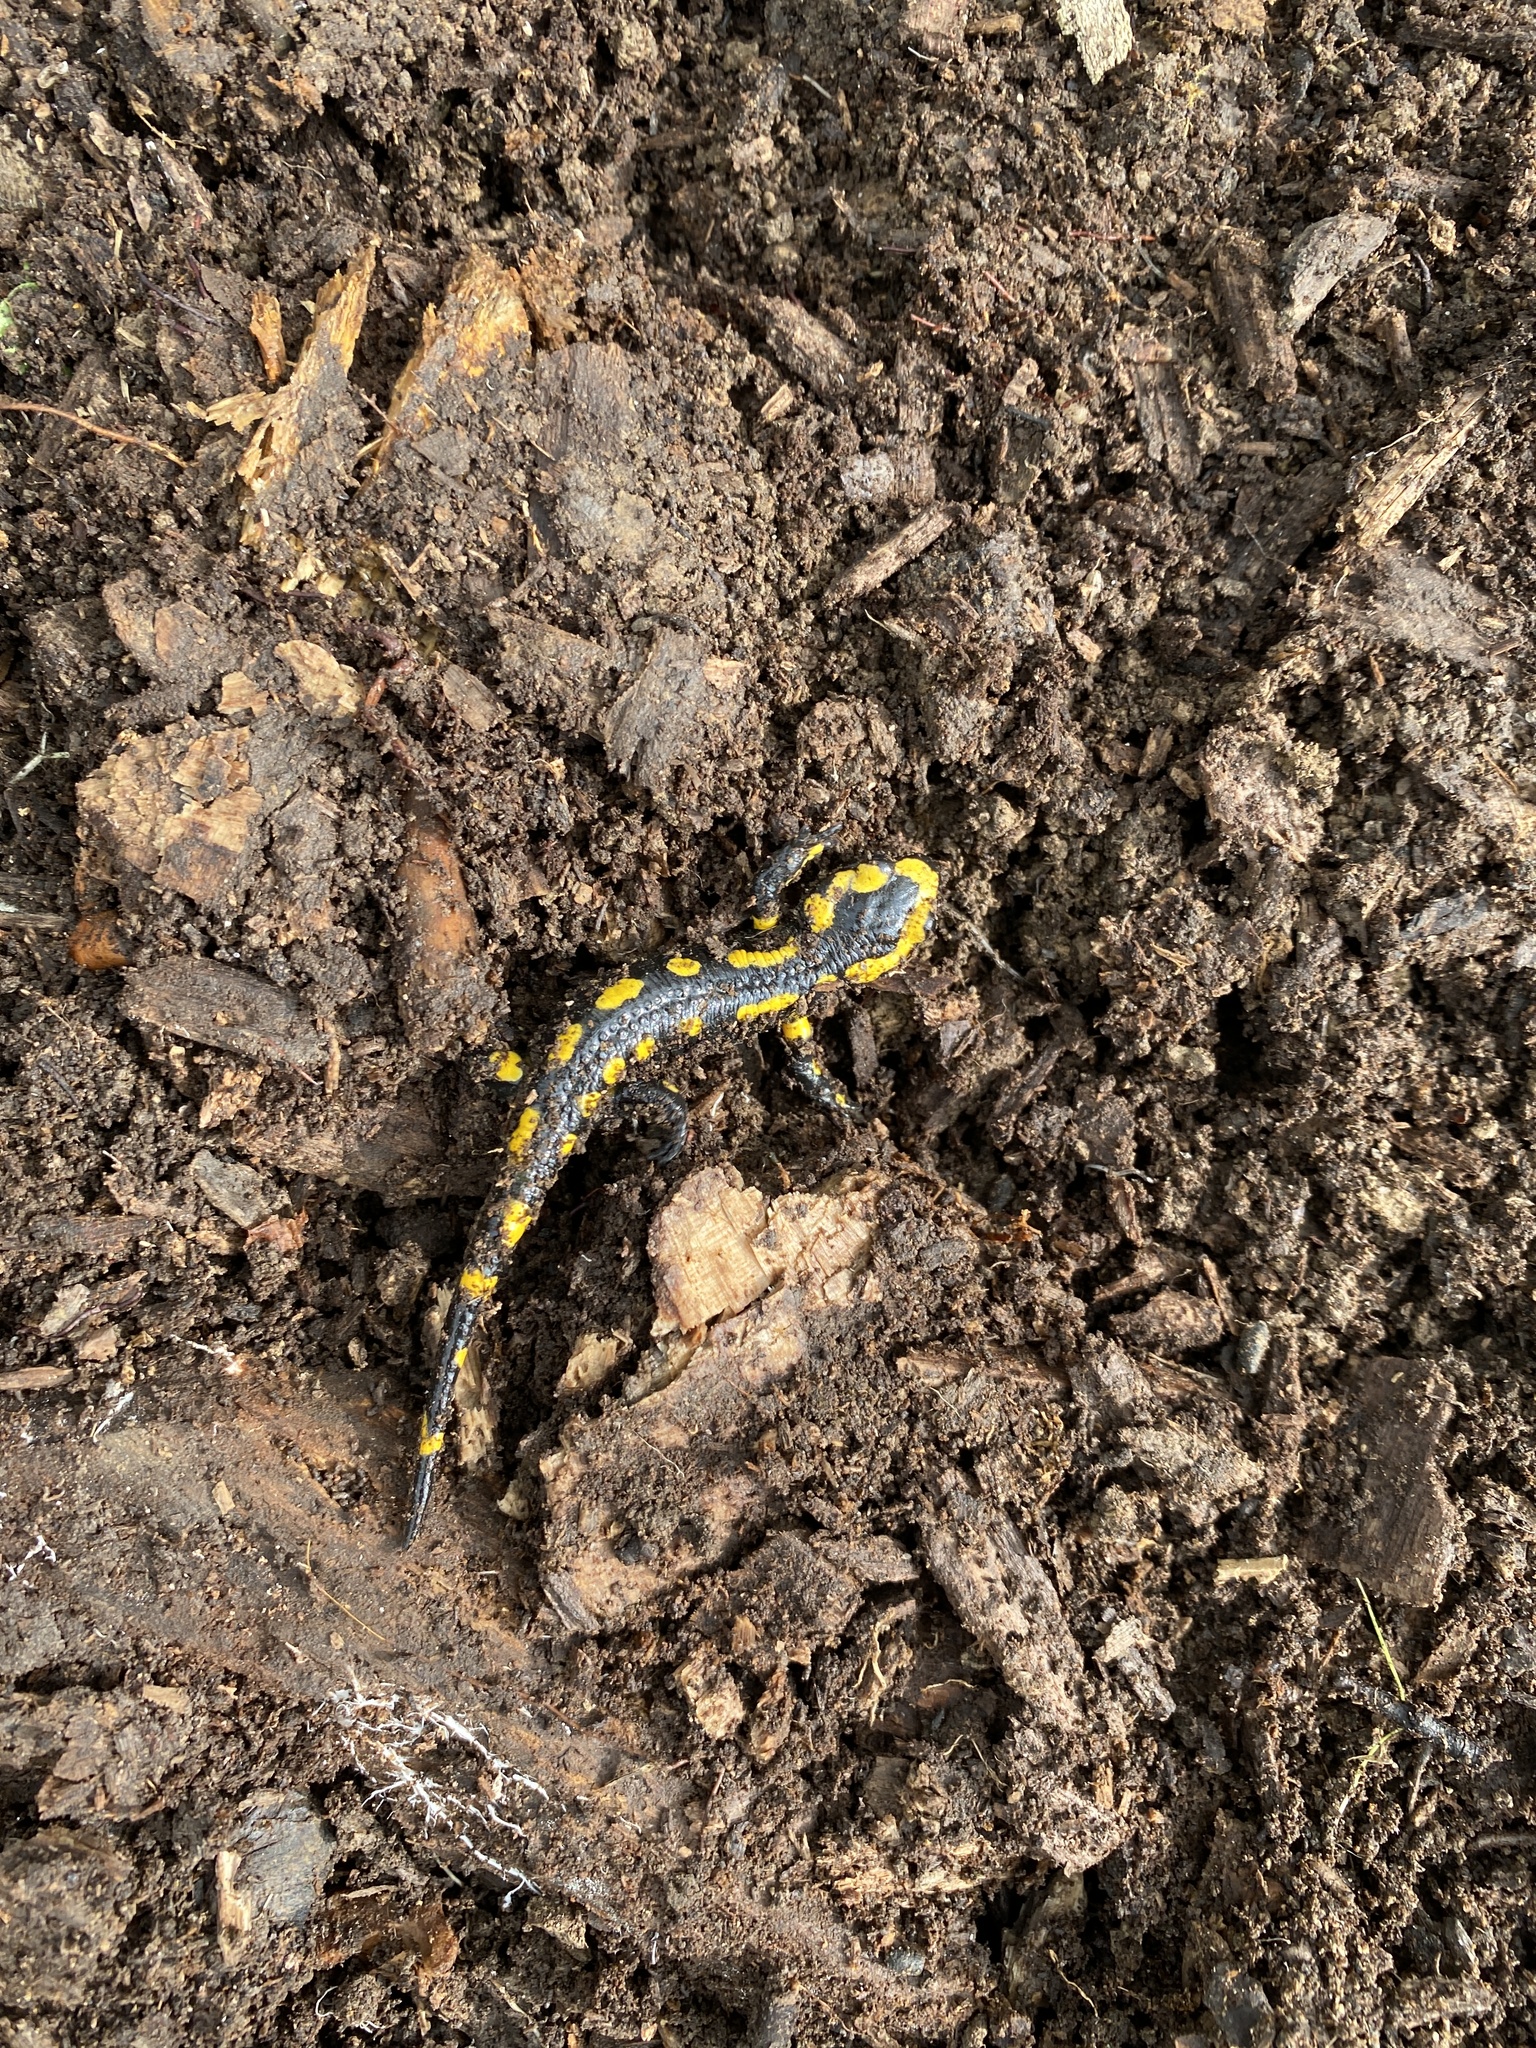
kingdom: Animalia
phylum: Chordata
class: Amphibia
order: Caudata
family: Salamandridae
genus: Salamandra
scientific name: Salamandra salamandra
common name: Fire salamander
